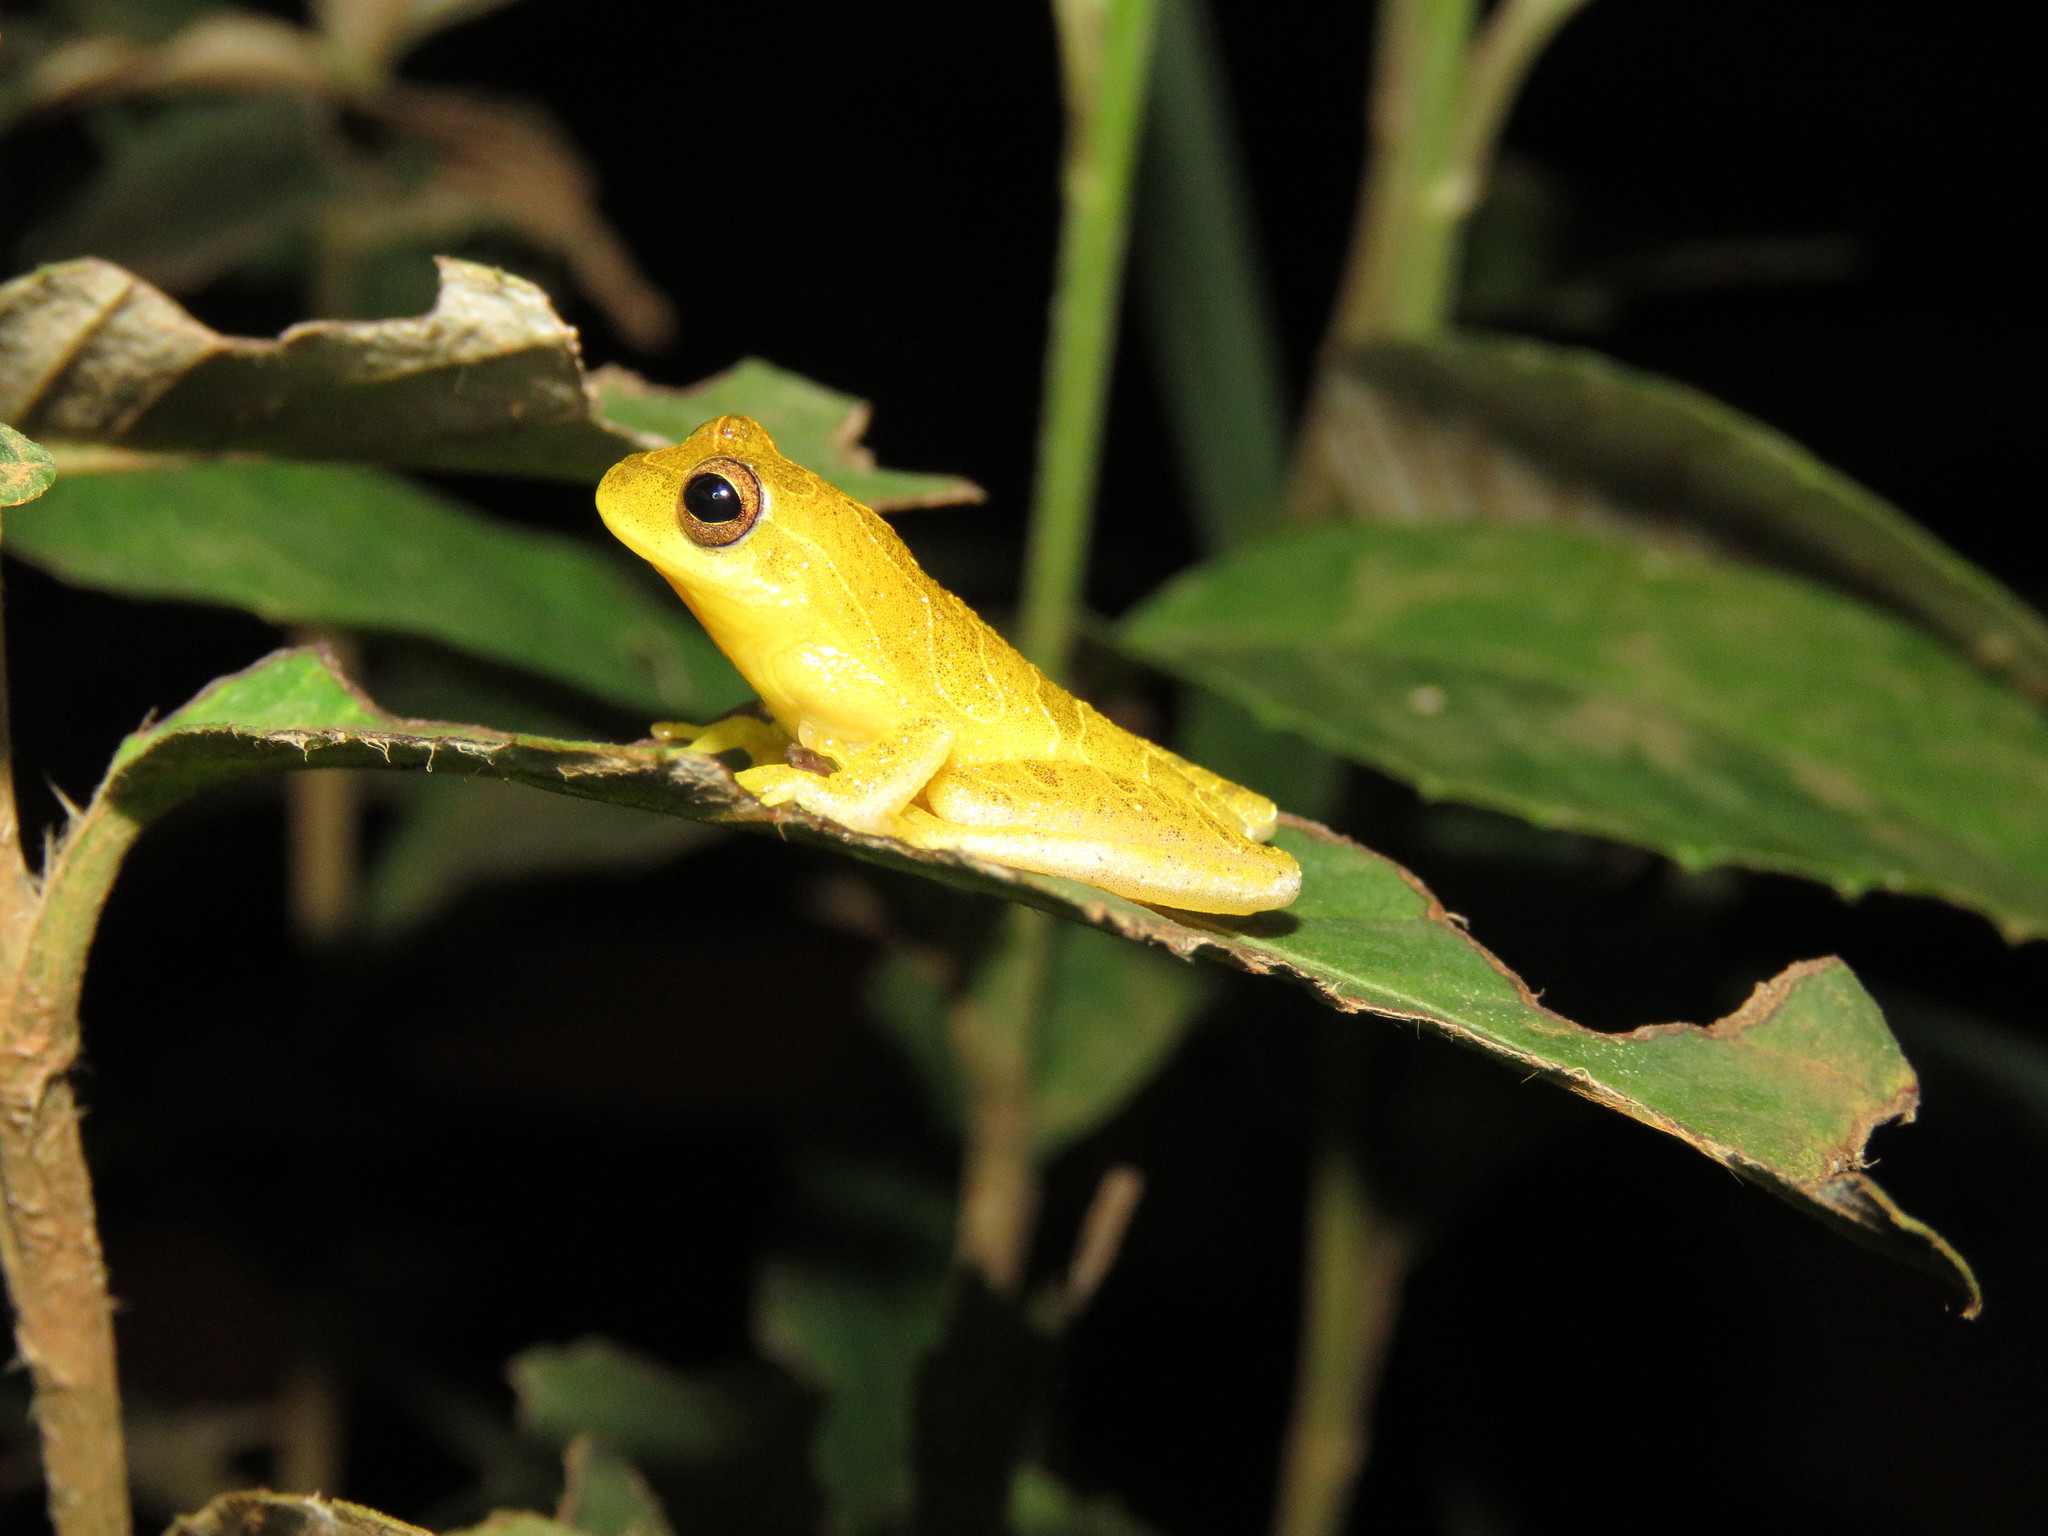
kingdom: Animalia
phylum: Chordata
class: Amphibia
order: Anura
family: Hylidae
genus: Dendropsophus
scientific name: Dendropsophus minutus
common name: Lesser treefrog
